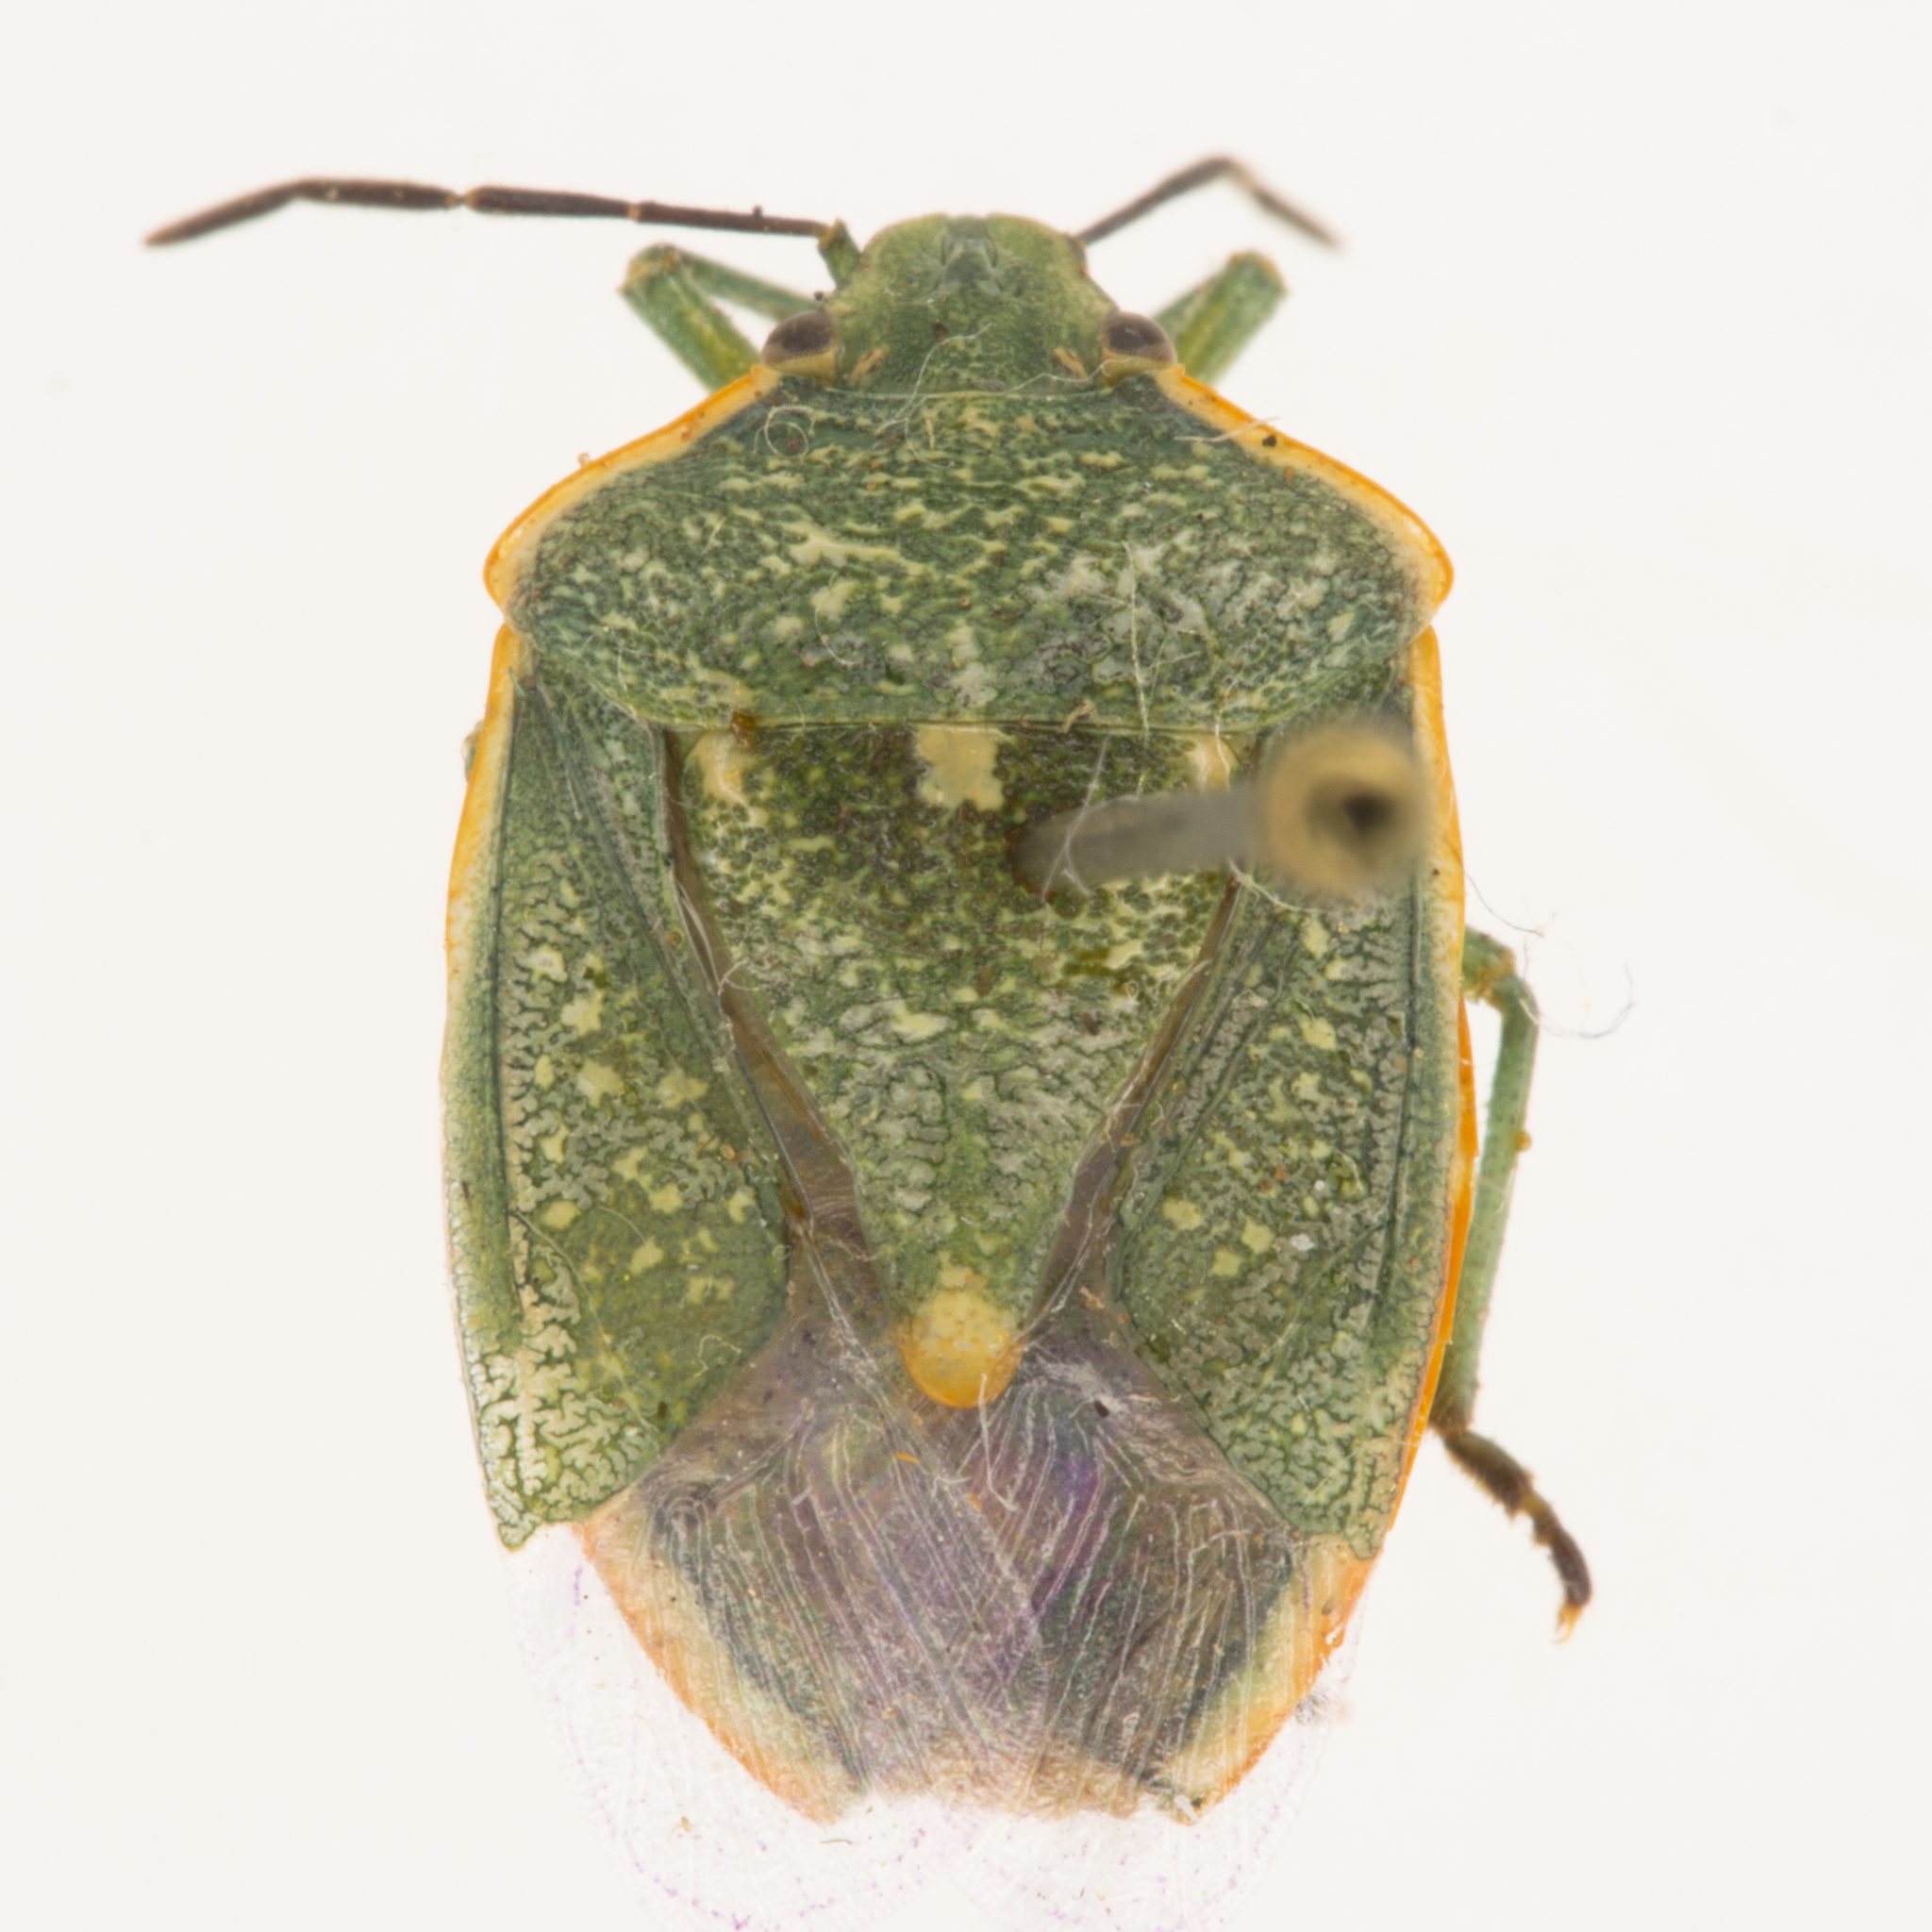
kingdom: Animalia
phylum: Arthropoda
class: Insecta
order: Hemiptera
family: Pentatomidae
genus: Chlorochroa
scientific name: Chlorochroa sayi
